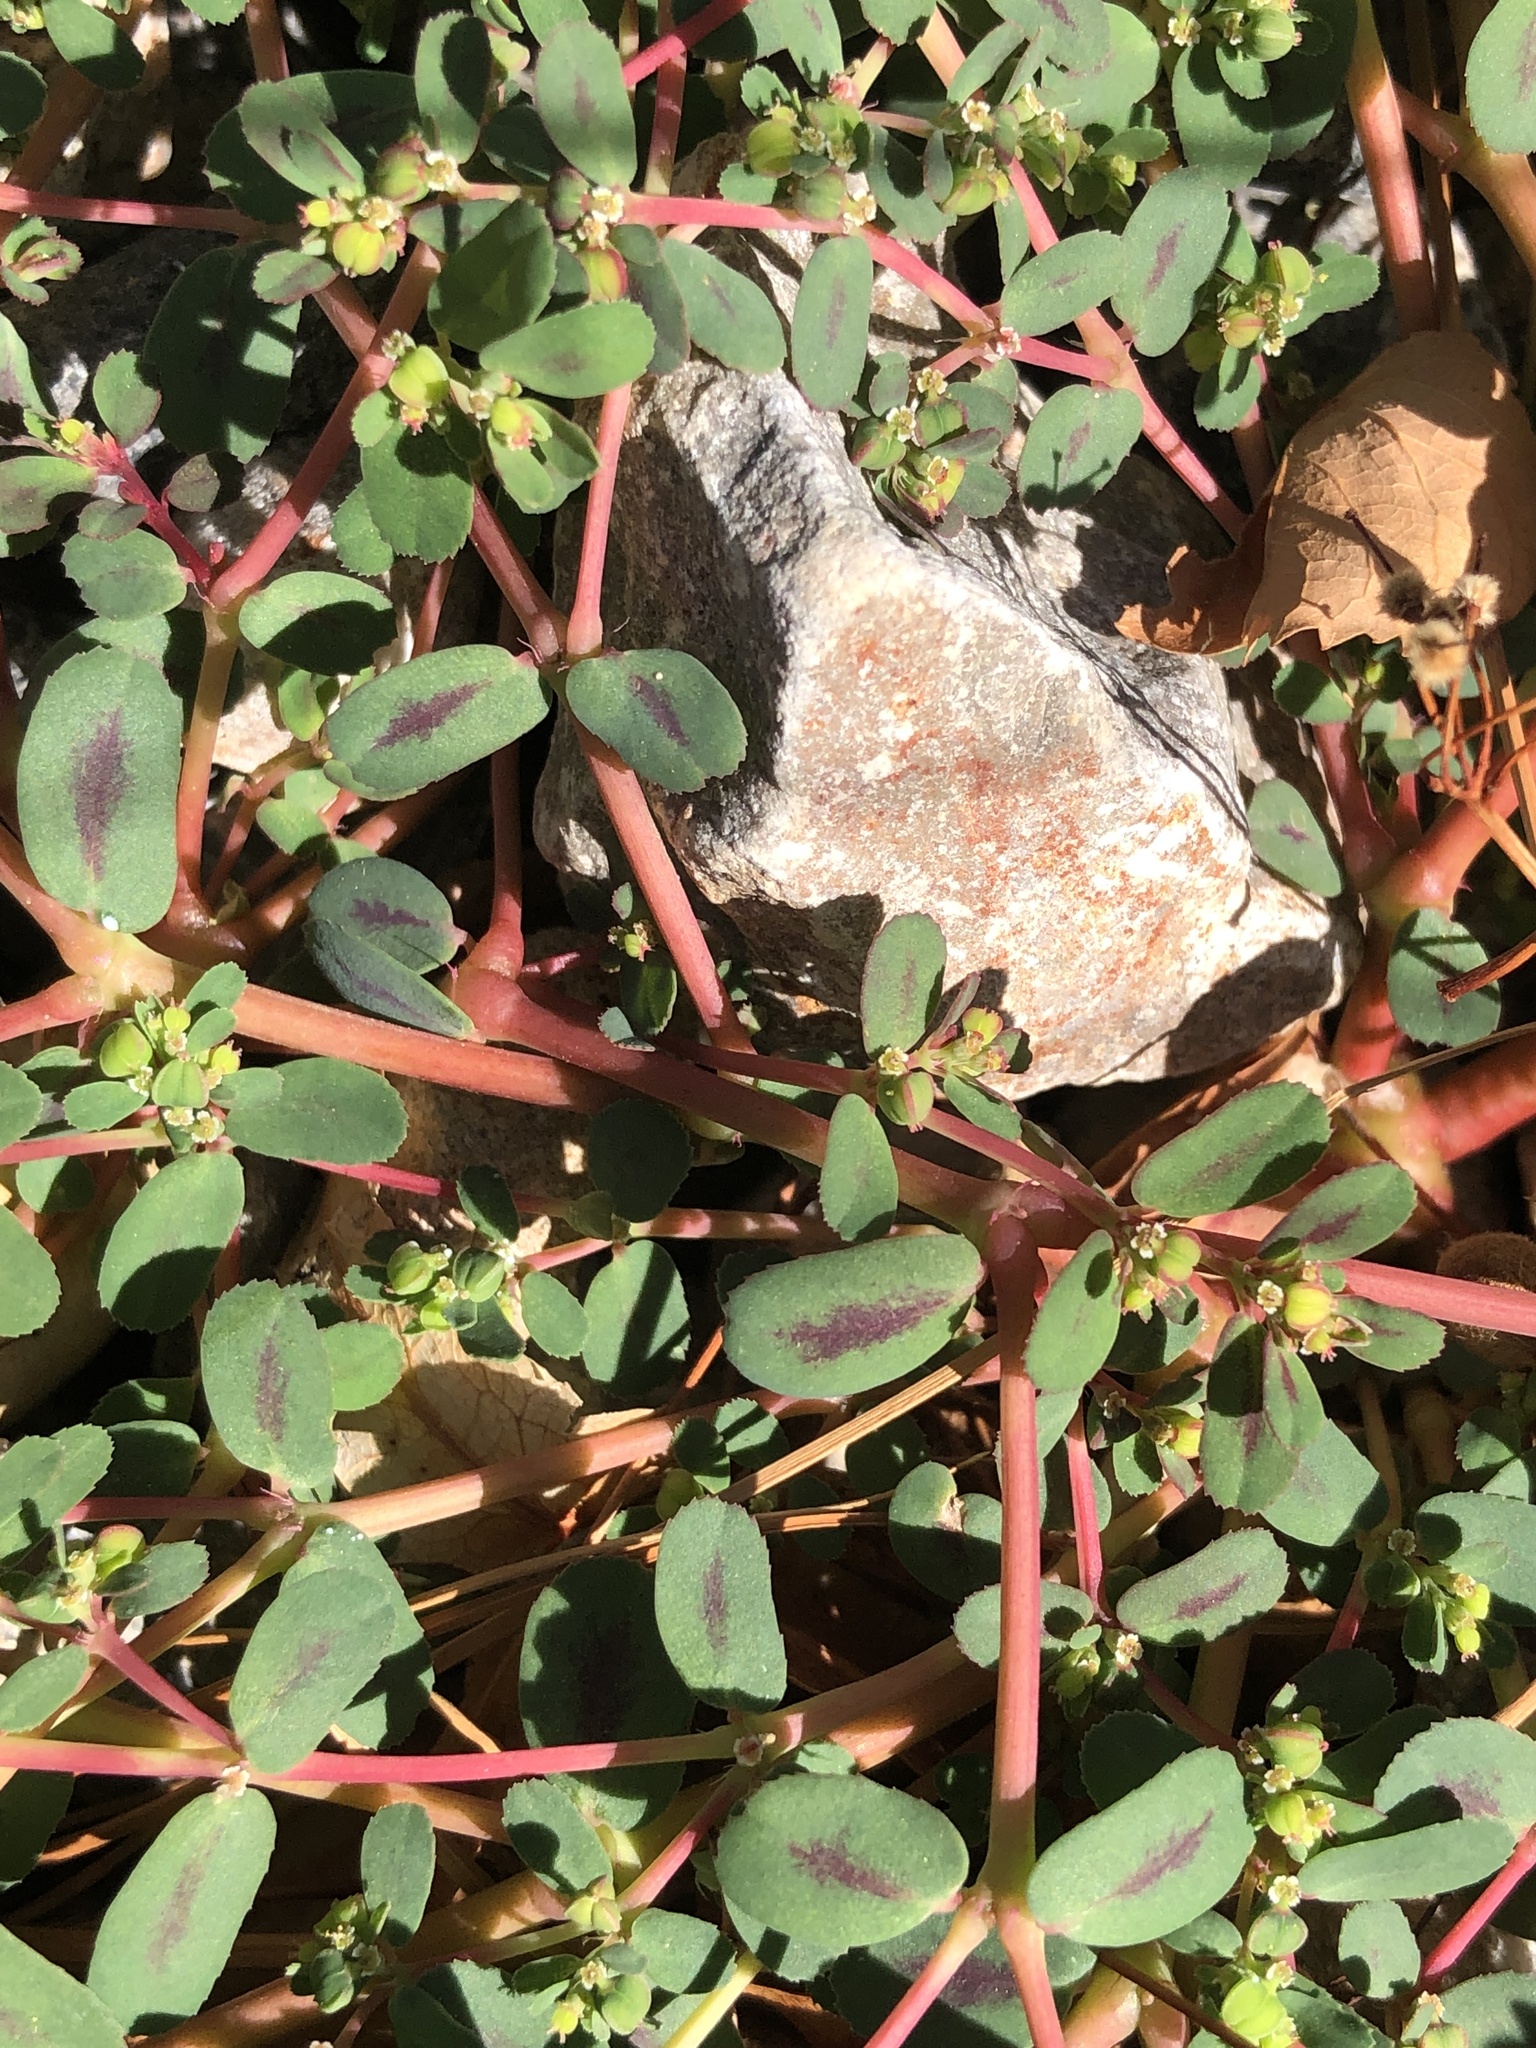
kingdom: Plantae
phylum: Tracheophyta
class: Magnoliopsida
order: Malpighiales
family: Euphorbiaceae
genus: Euphorbia
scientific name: Euphorbia serpillifolia
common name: Thyme-leaf spurge
